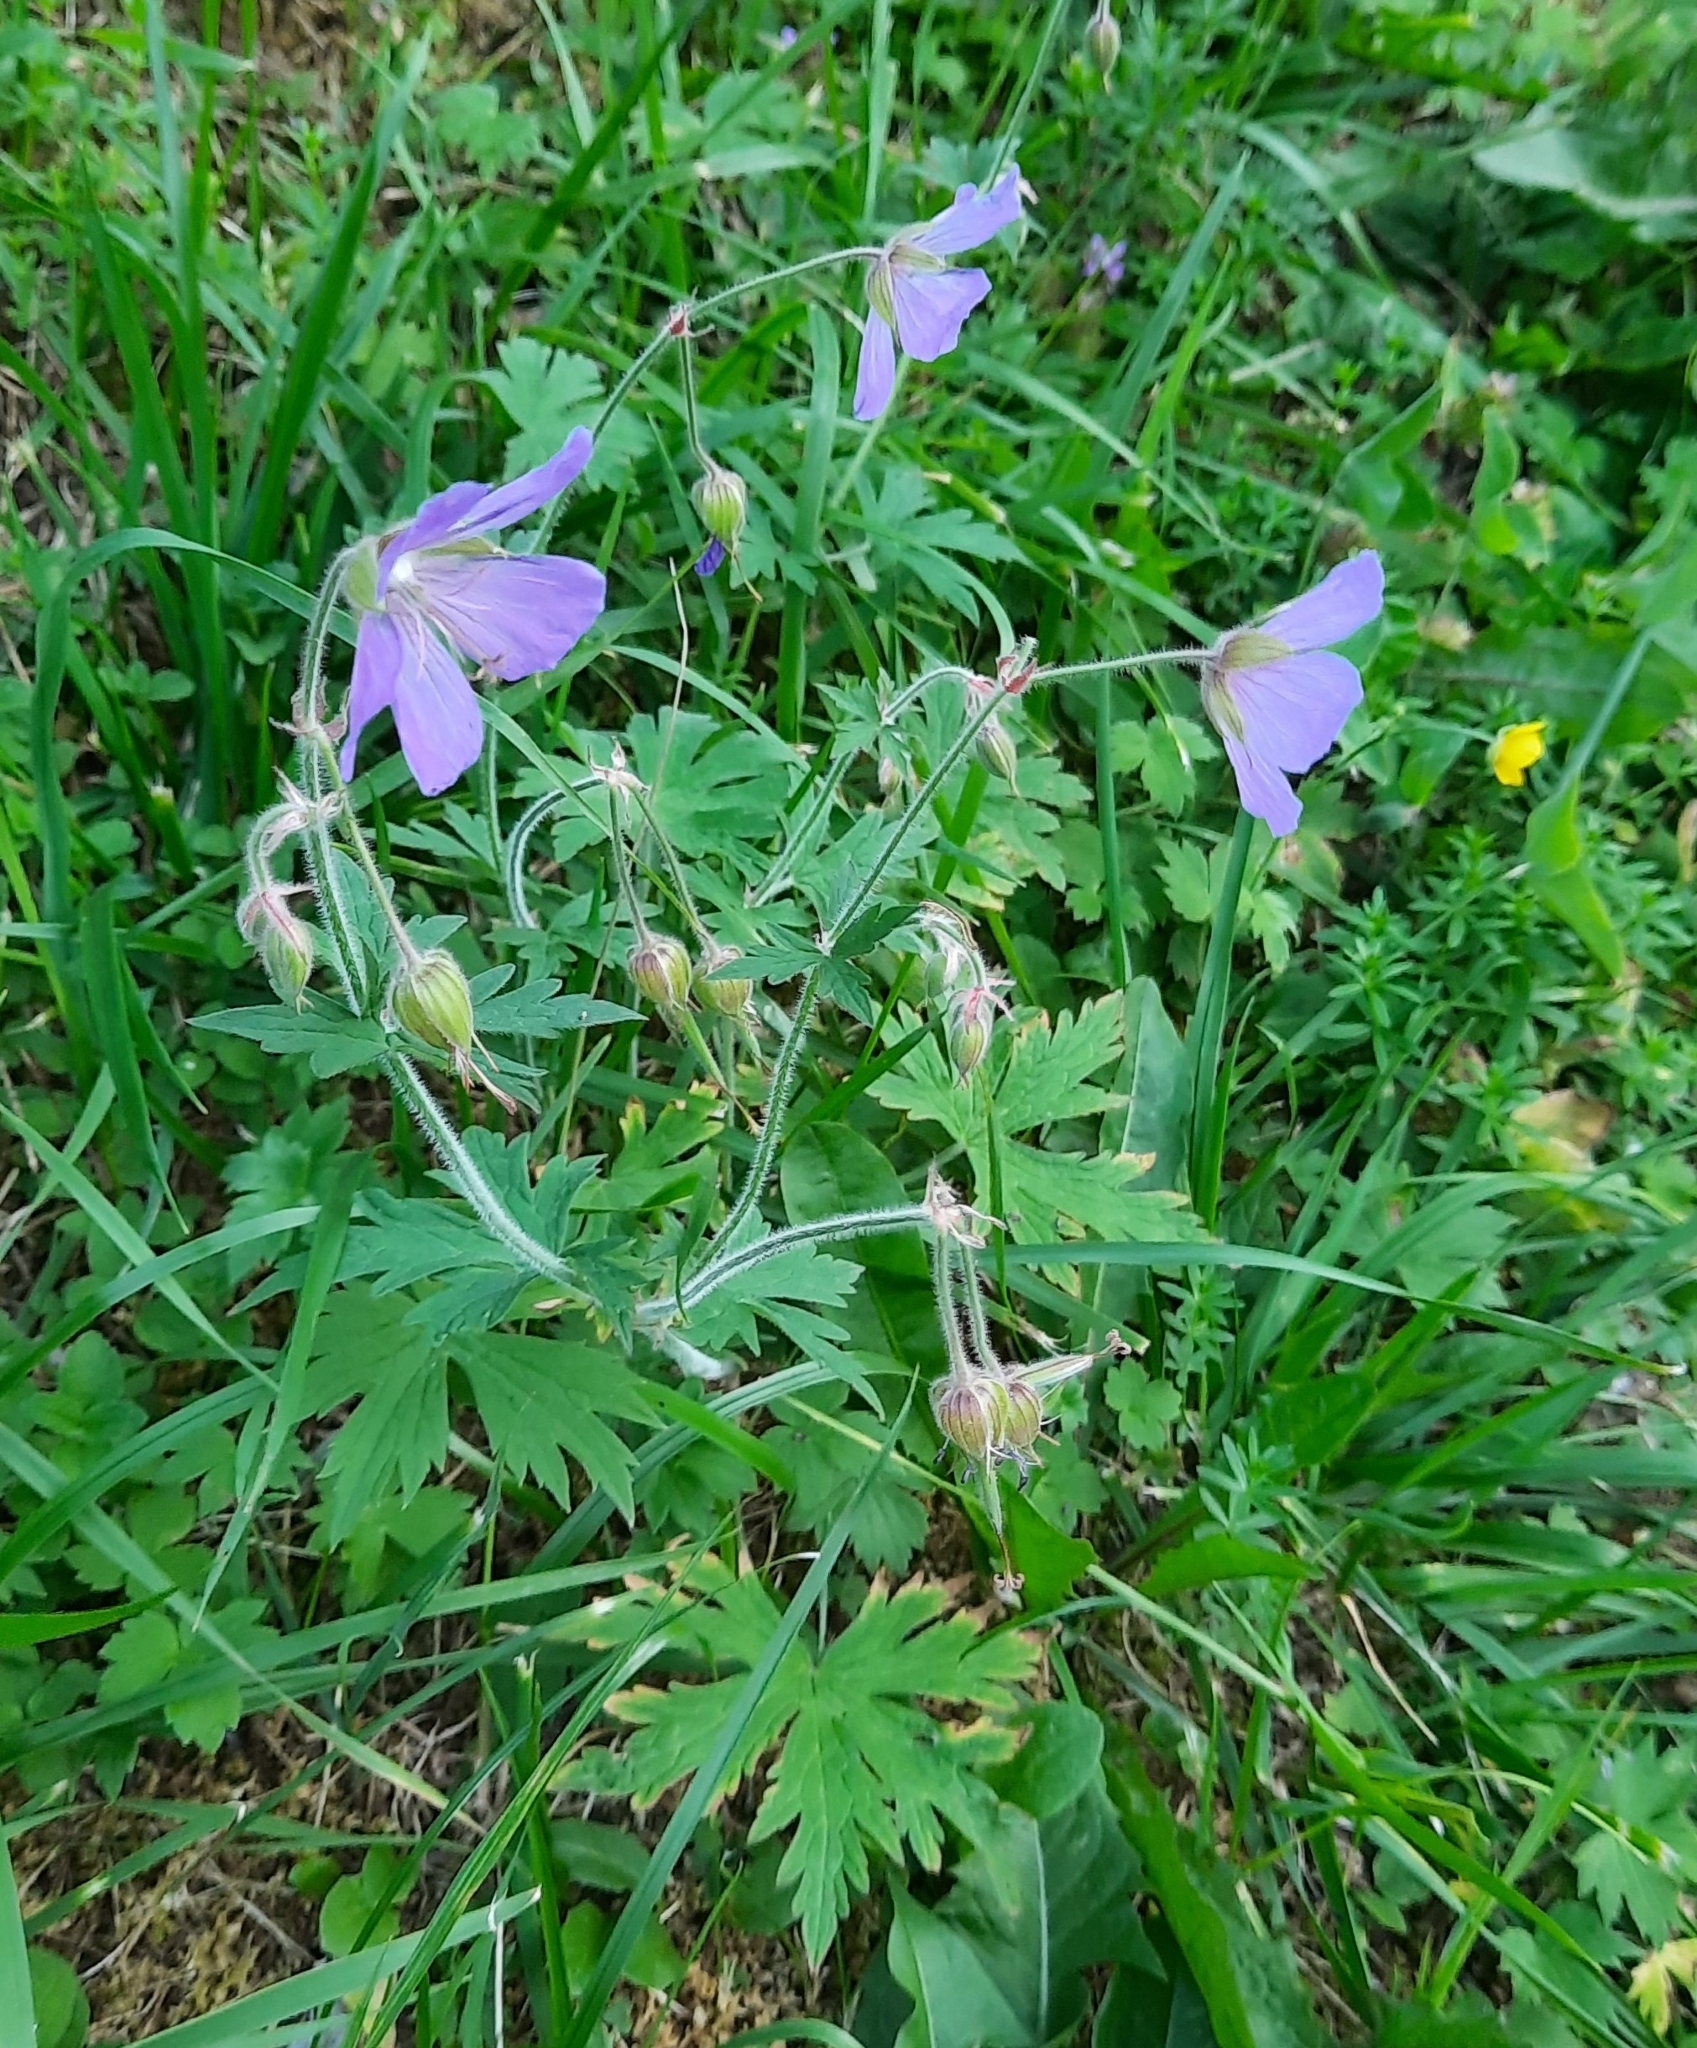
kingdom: Plantae
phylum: Tracheophyta
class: Magnoliopsida
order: Geraniales
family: Geraniaceae
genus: Geranium
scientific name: Geranium pratense
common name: Meadow crane's-bill
